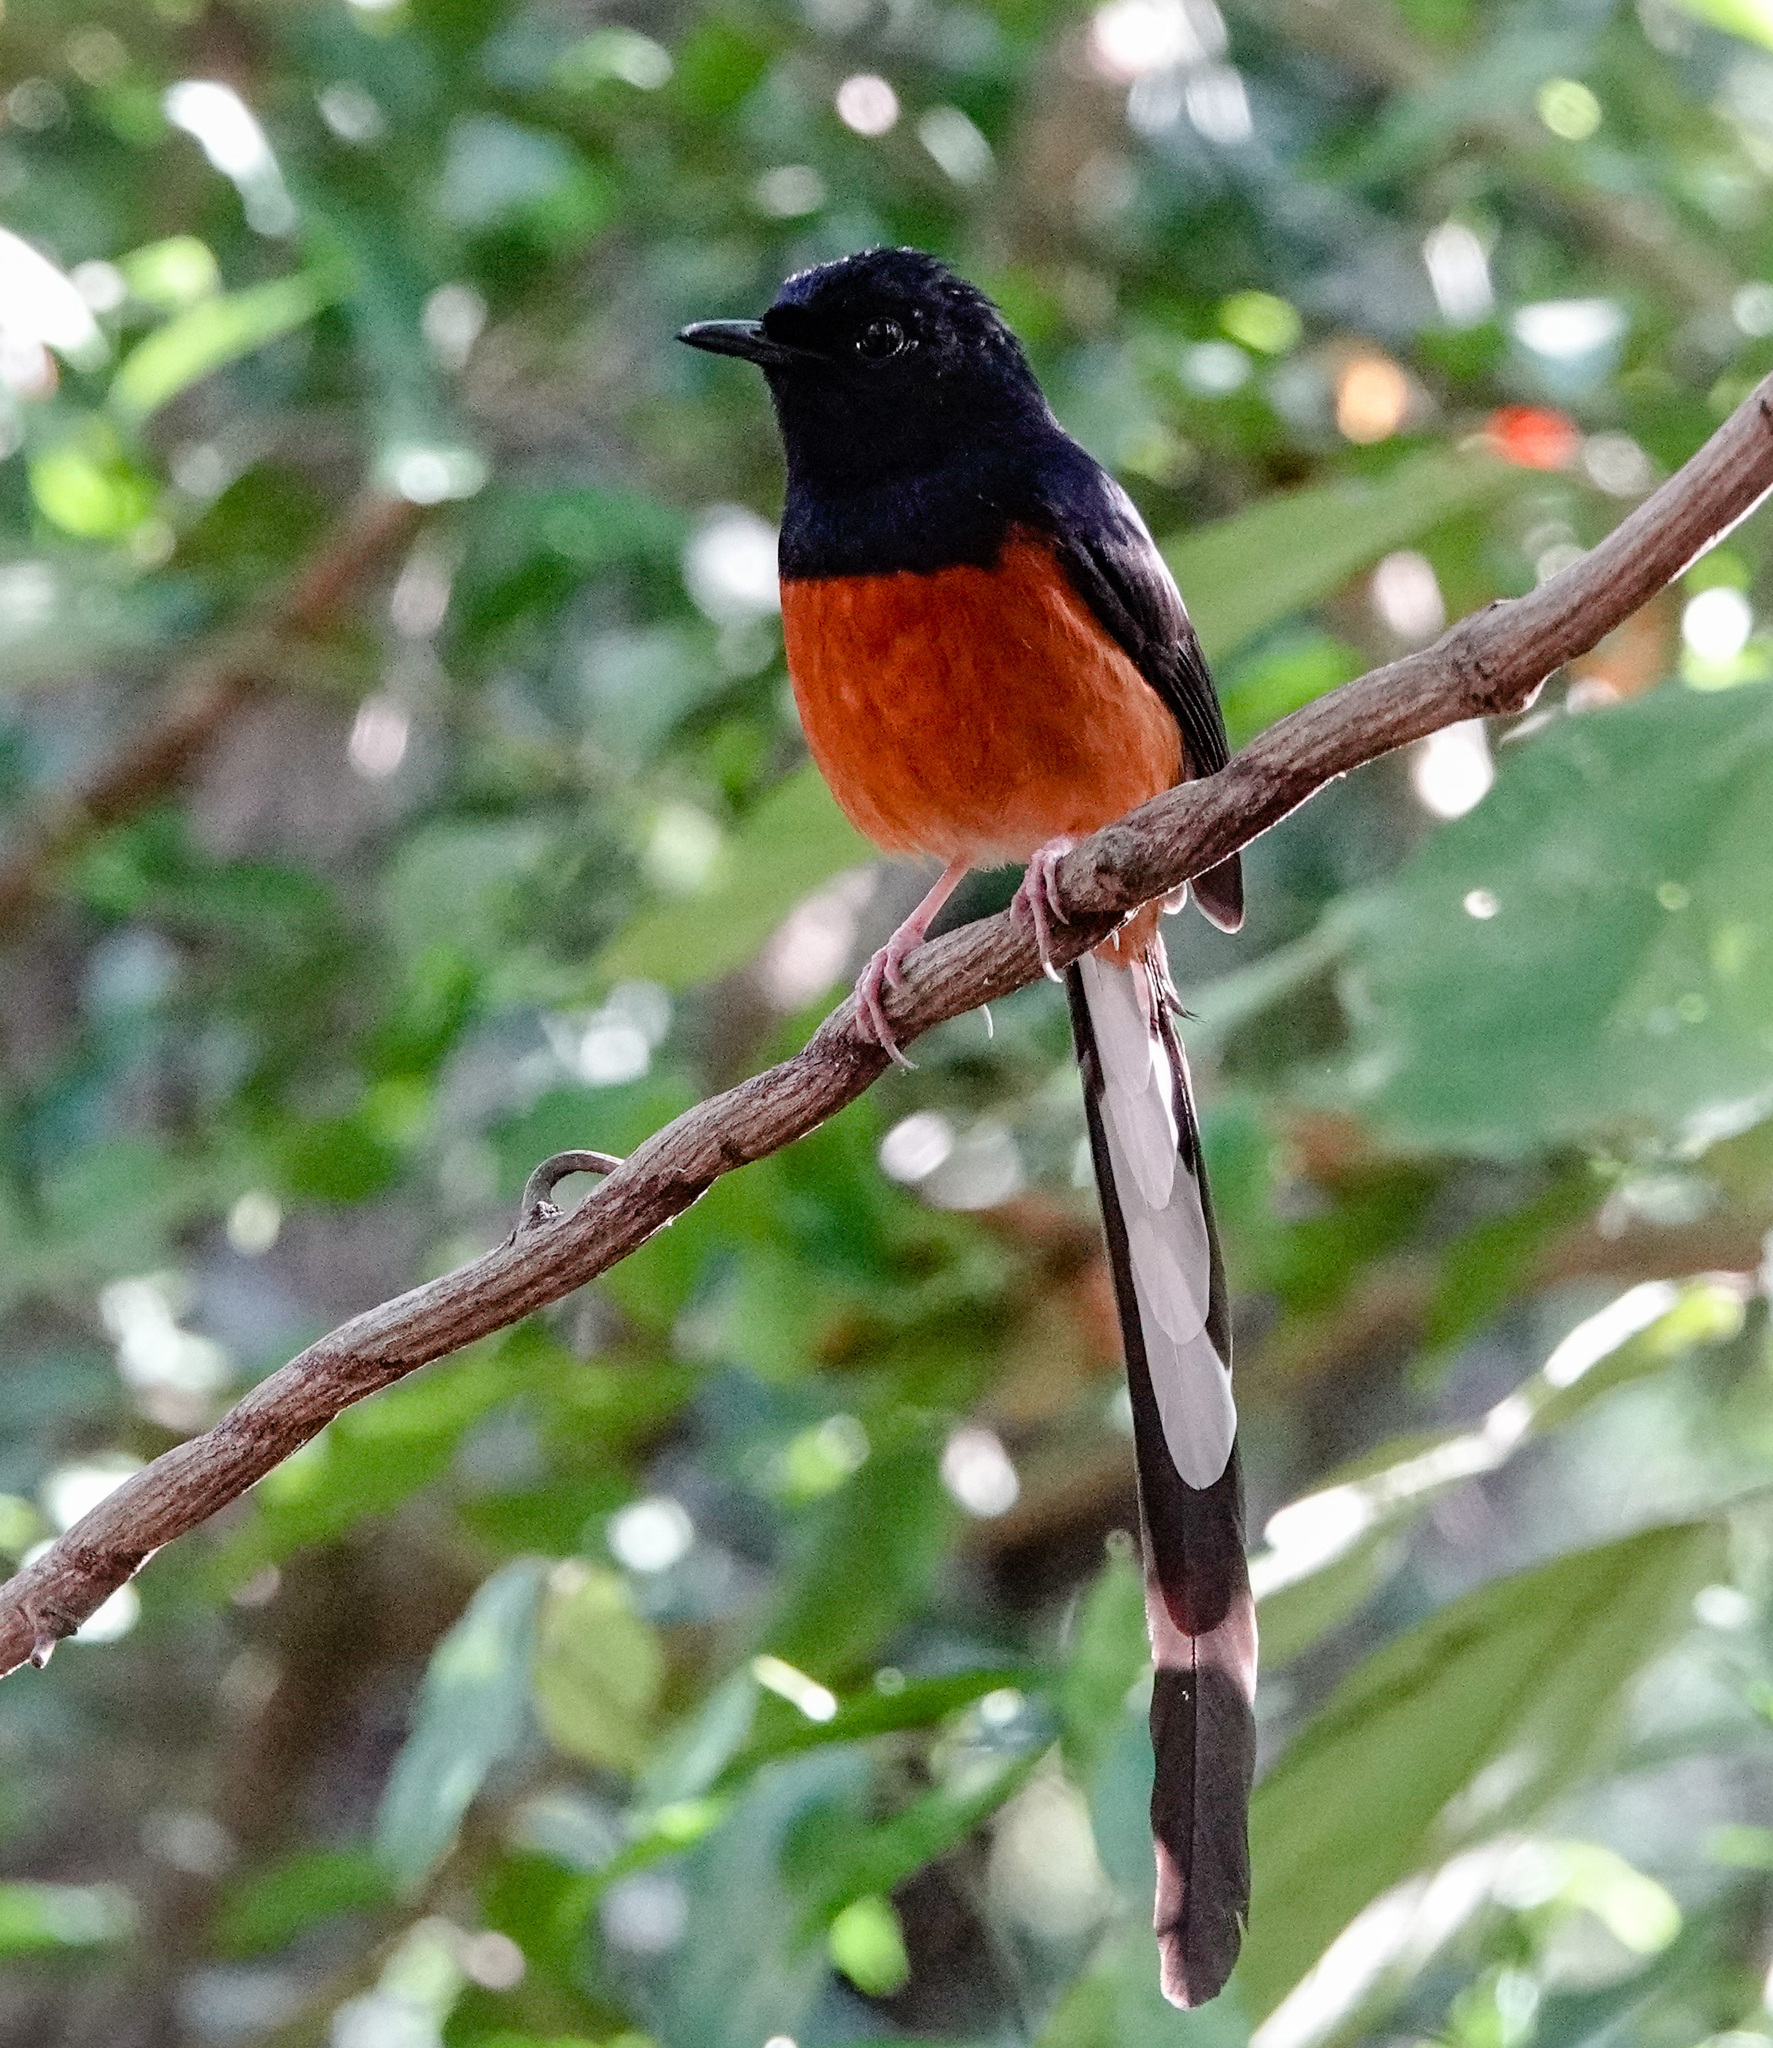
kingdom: Animalia
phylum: Chordata
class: Aves
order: Passeriformes
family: Muscicapidae
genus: Copsychus
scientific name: Copsychus malabaricus
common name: White-rumped shama
